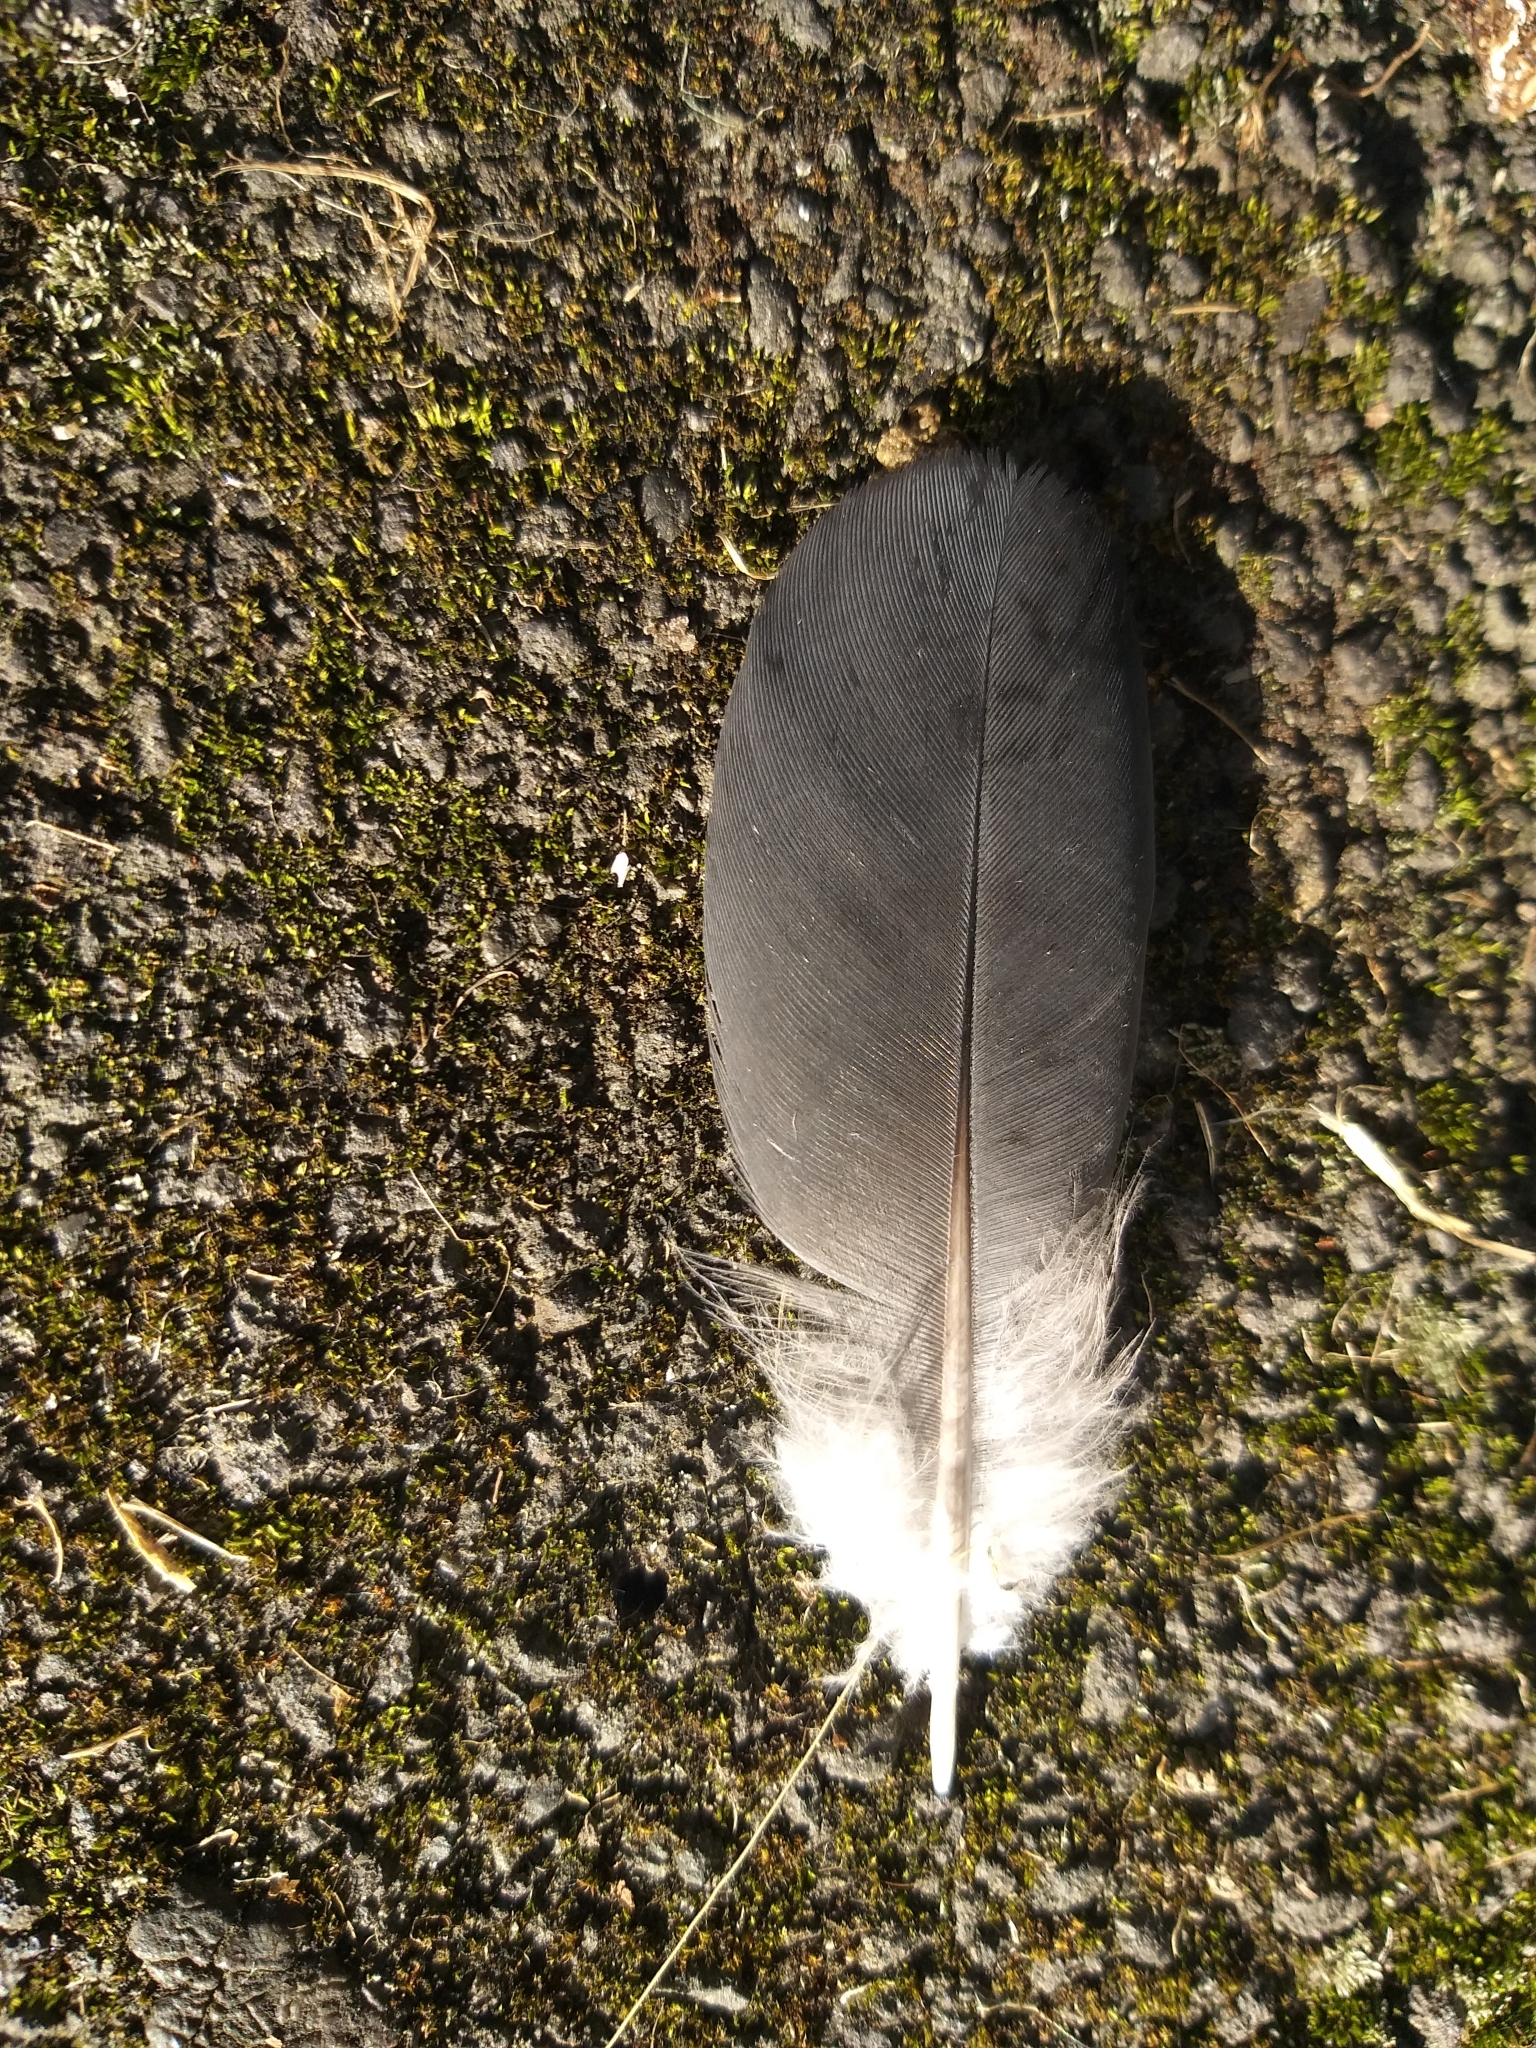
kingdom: Animalia
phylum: Chordata
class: Aves
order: Columbiformes
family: Columbidae
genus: Columba
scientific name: Columba livia
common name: Rock pigeon
